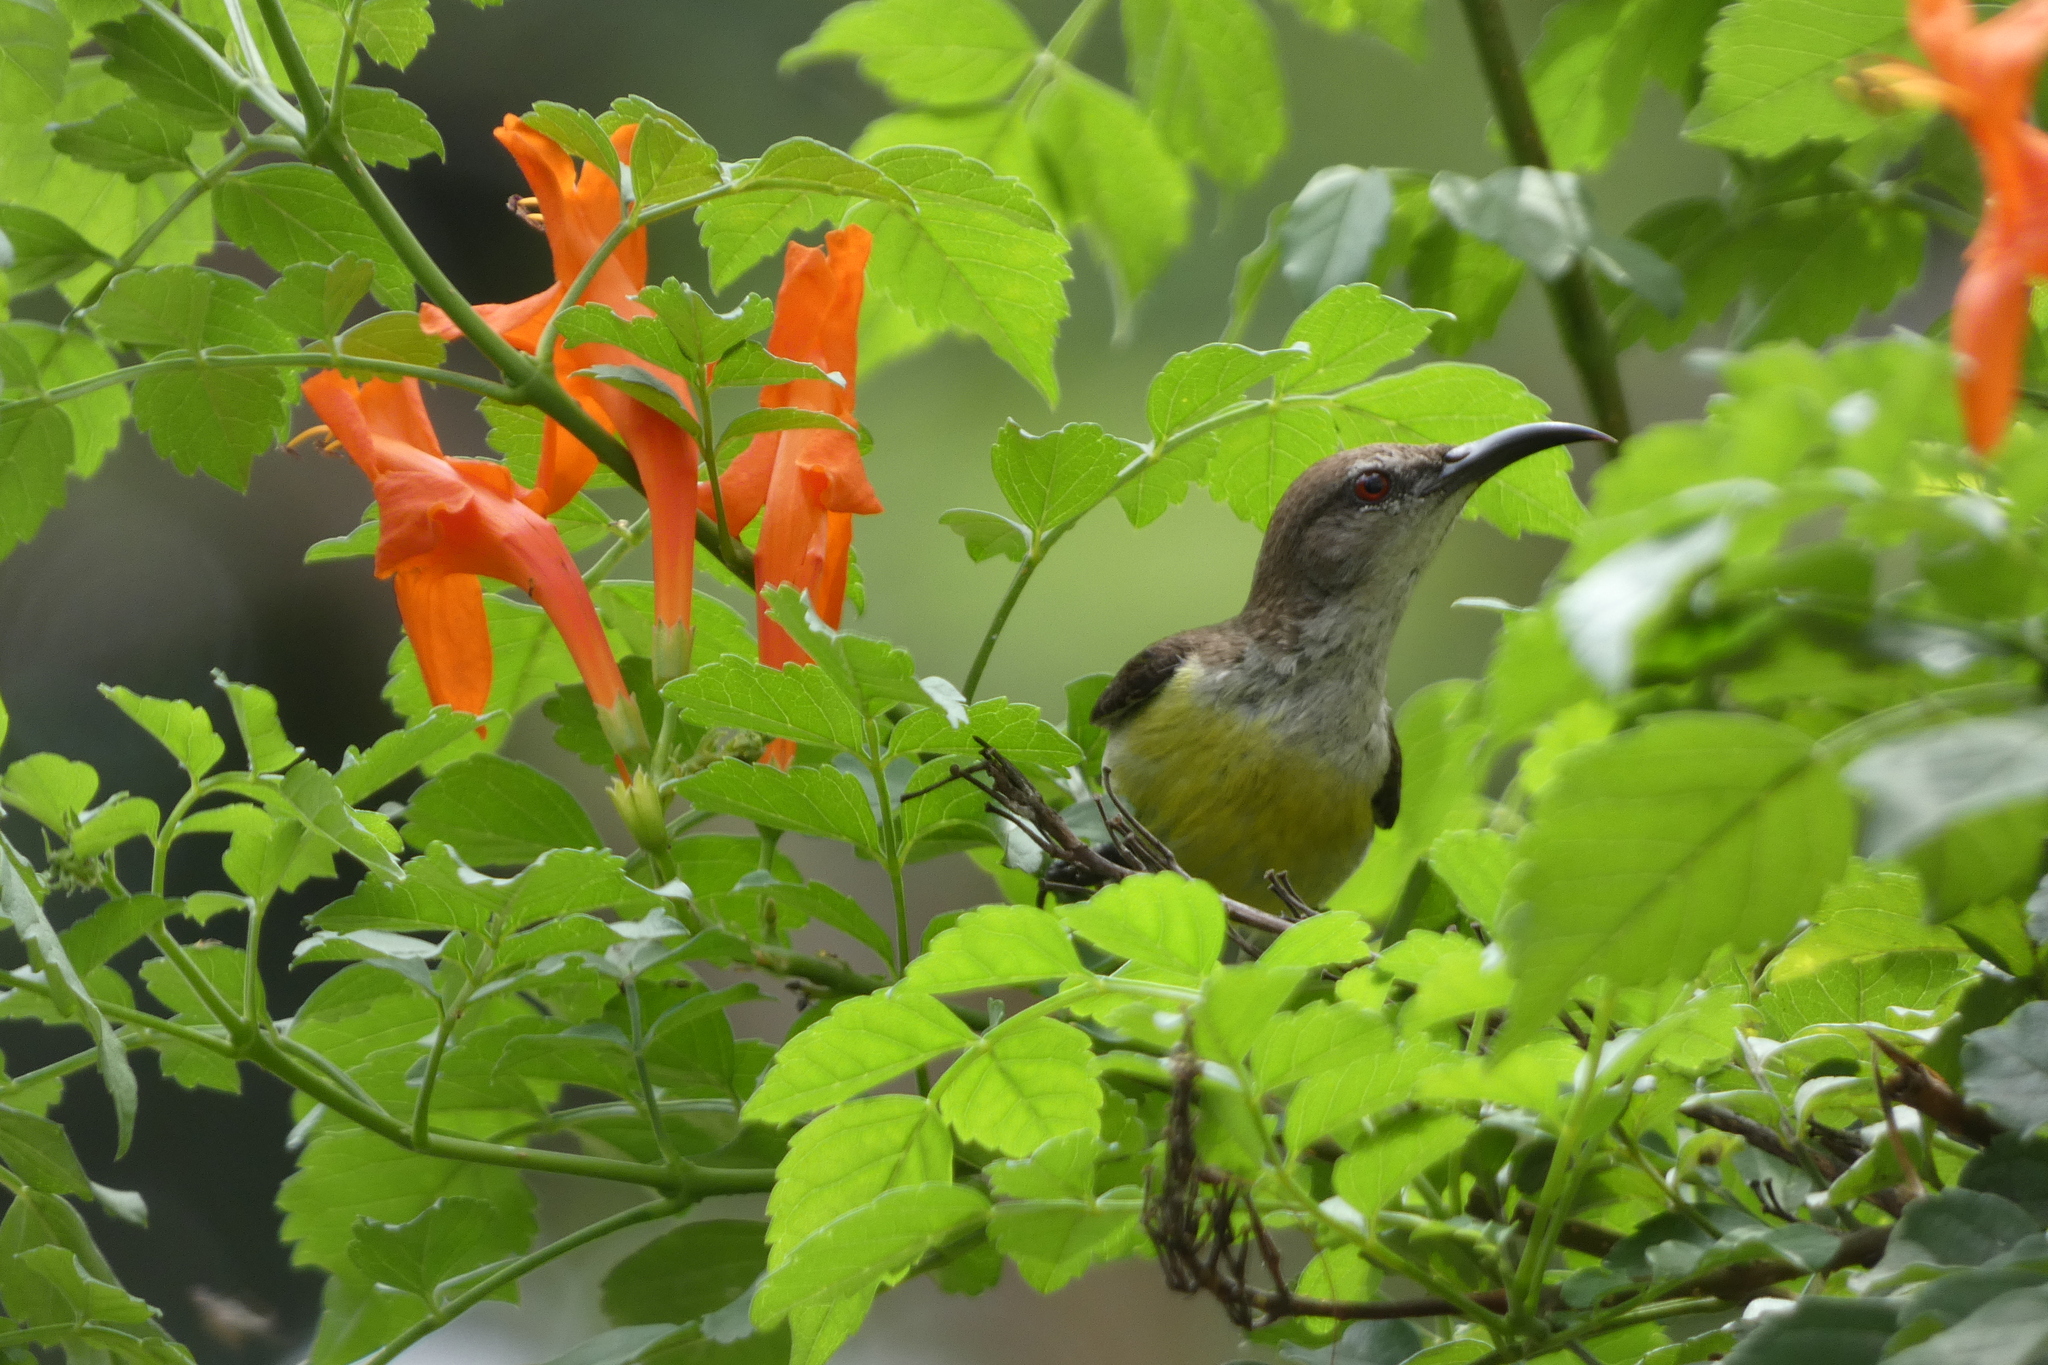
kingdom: Animalia
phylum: Chordata
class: Aves
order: Passeriformes
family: Nectariniidae
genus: Leptocoma
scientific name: Leptocoma zeylonica
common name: Purple-rumped sunbird
